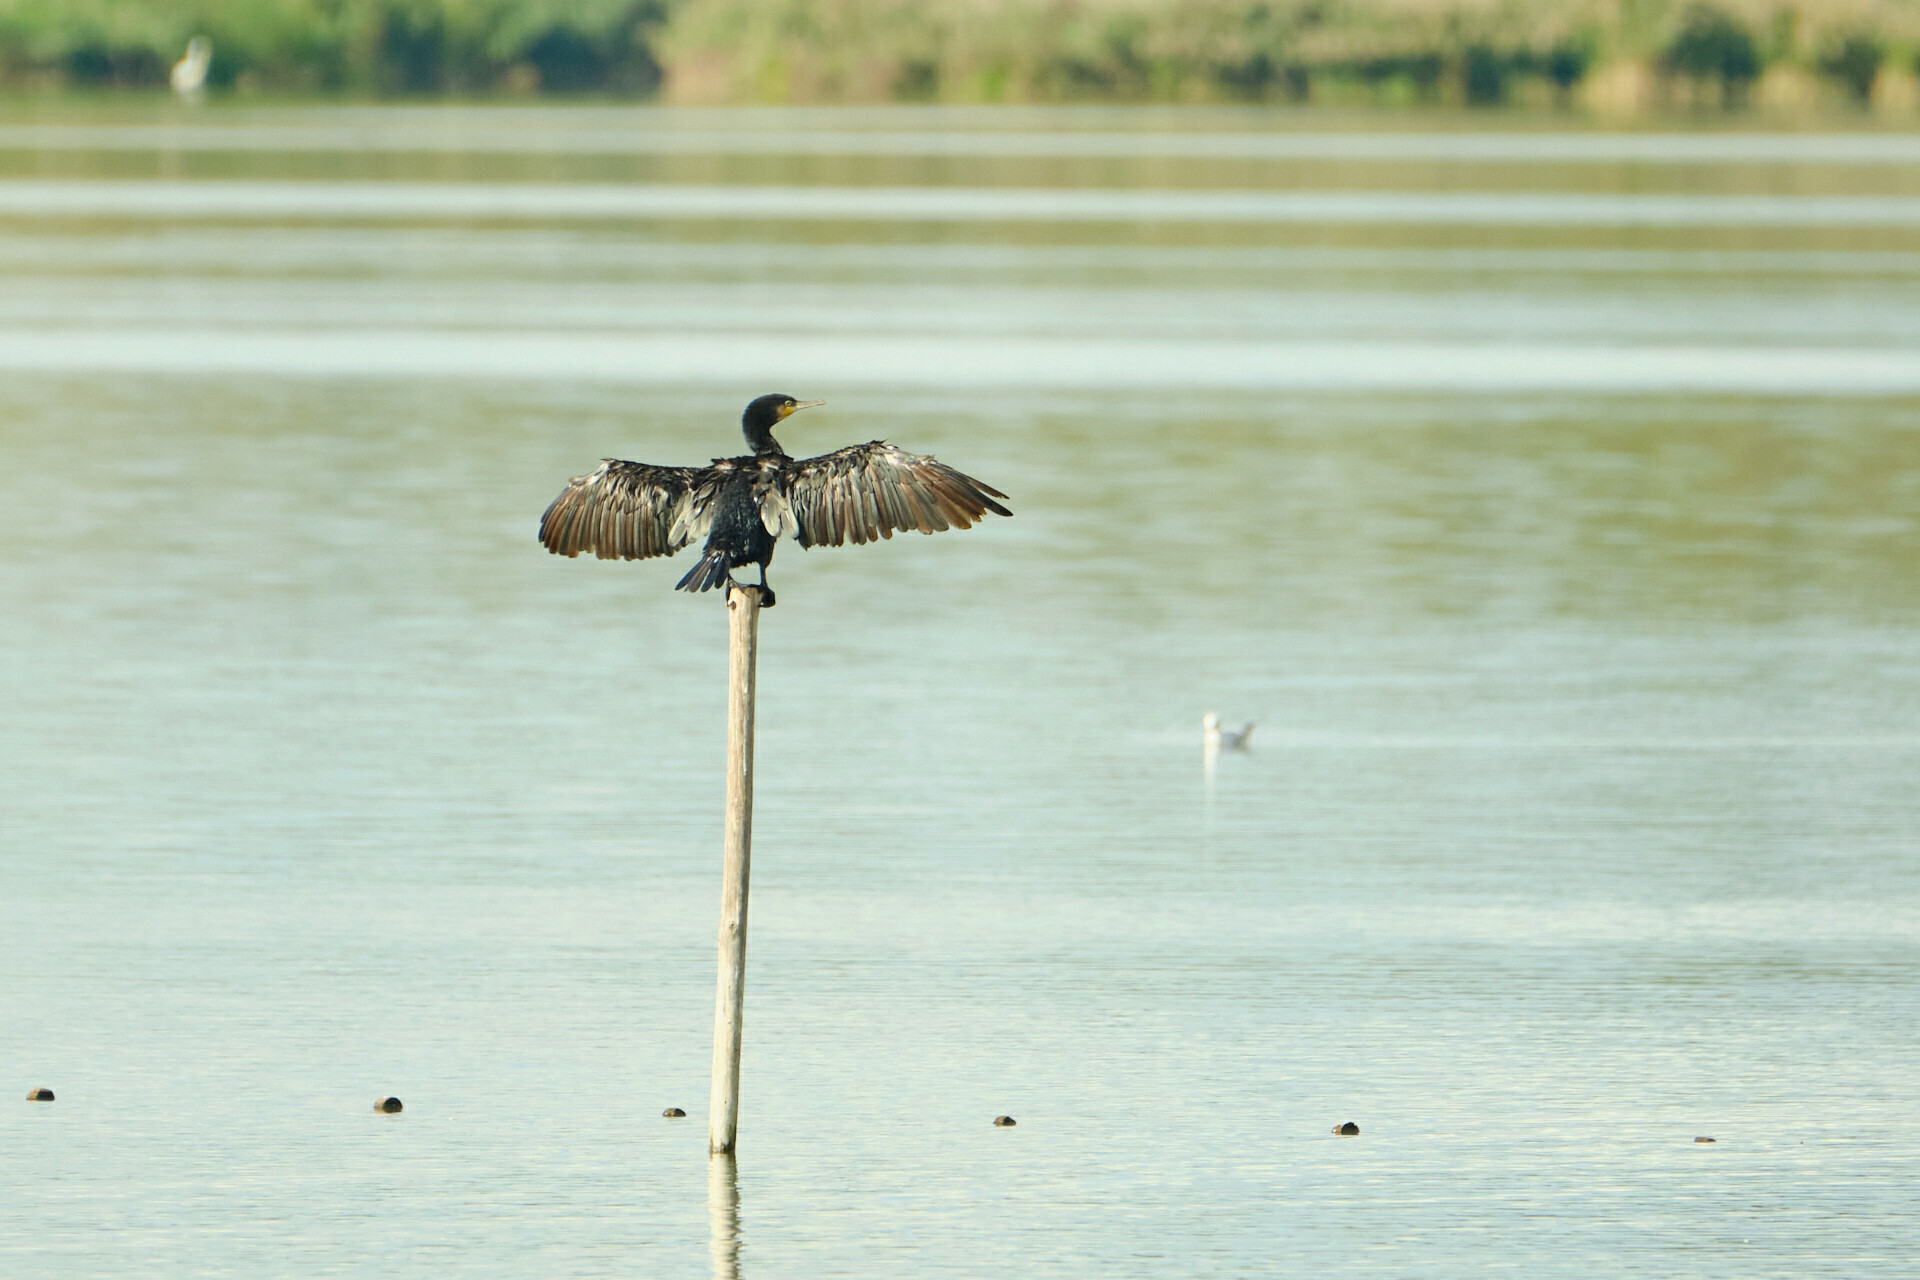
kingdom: Animalia
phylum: Chordata
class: Aves
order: Suliformes
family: Phalacrocoracidae
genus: Phalacrocorax
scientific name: Phalacrocorax carbo
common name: Great cormorant
